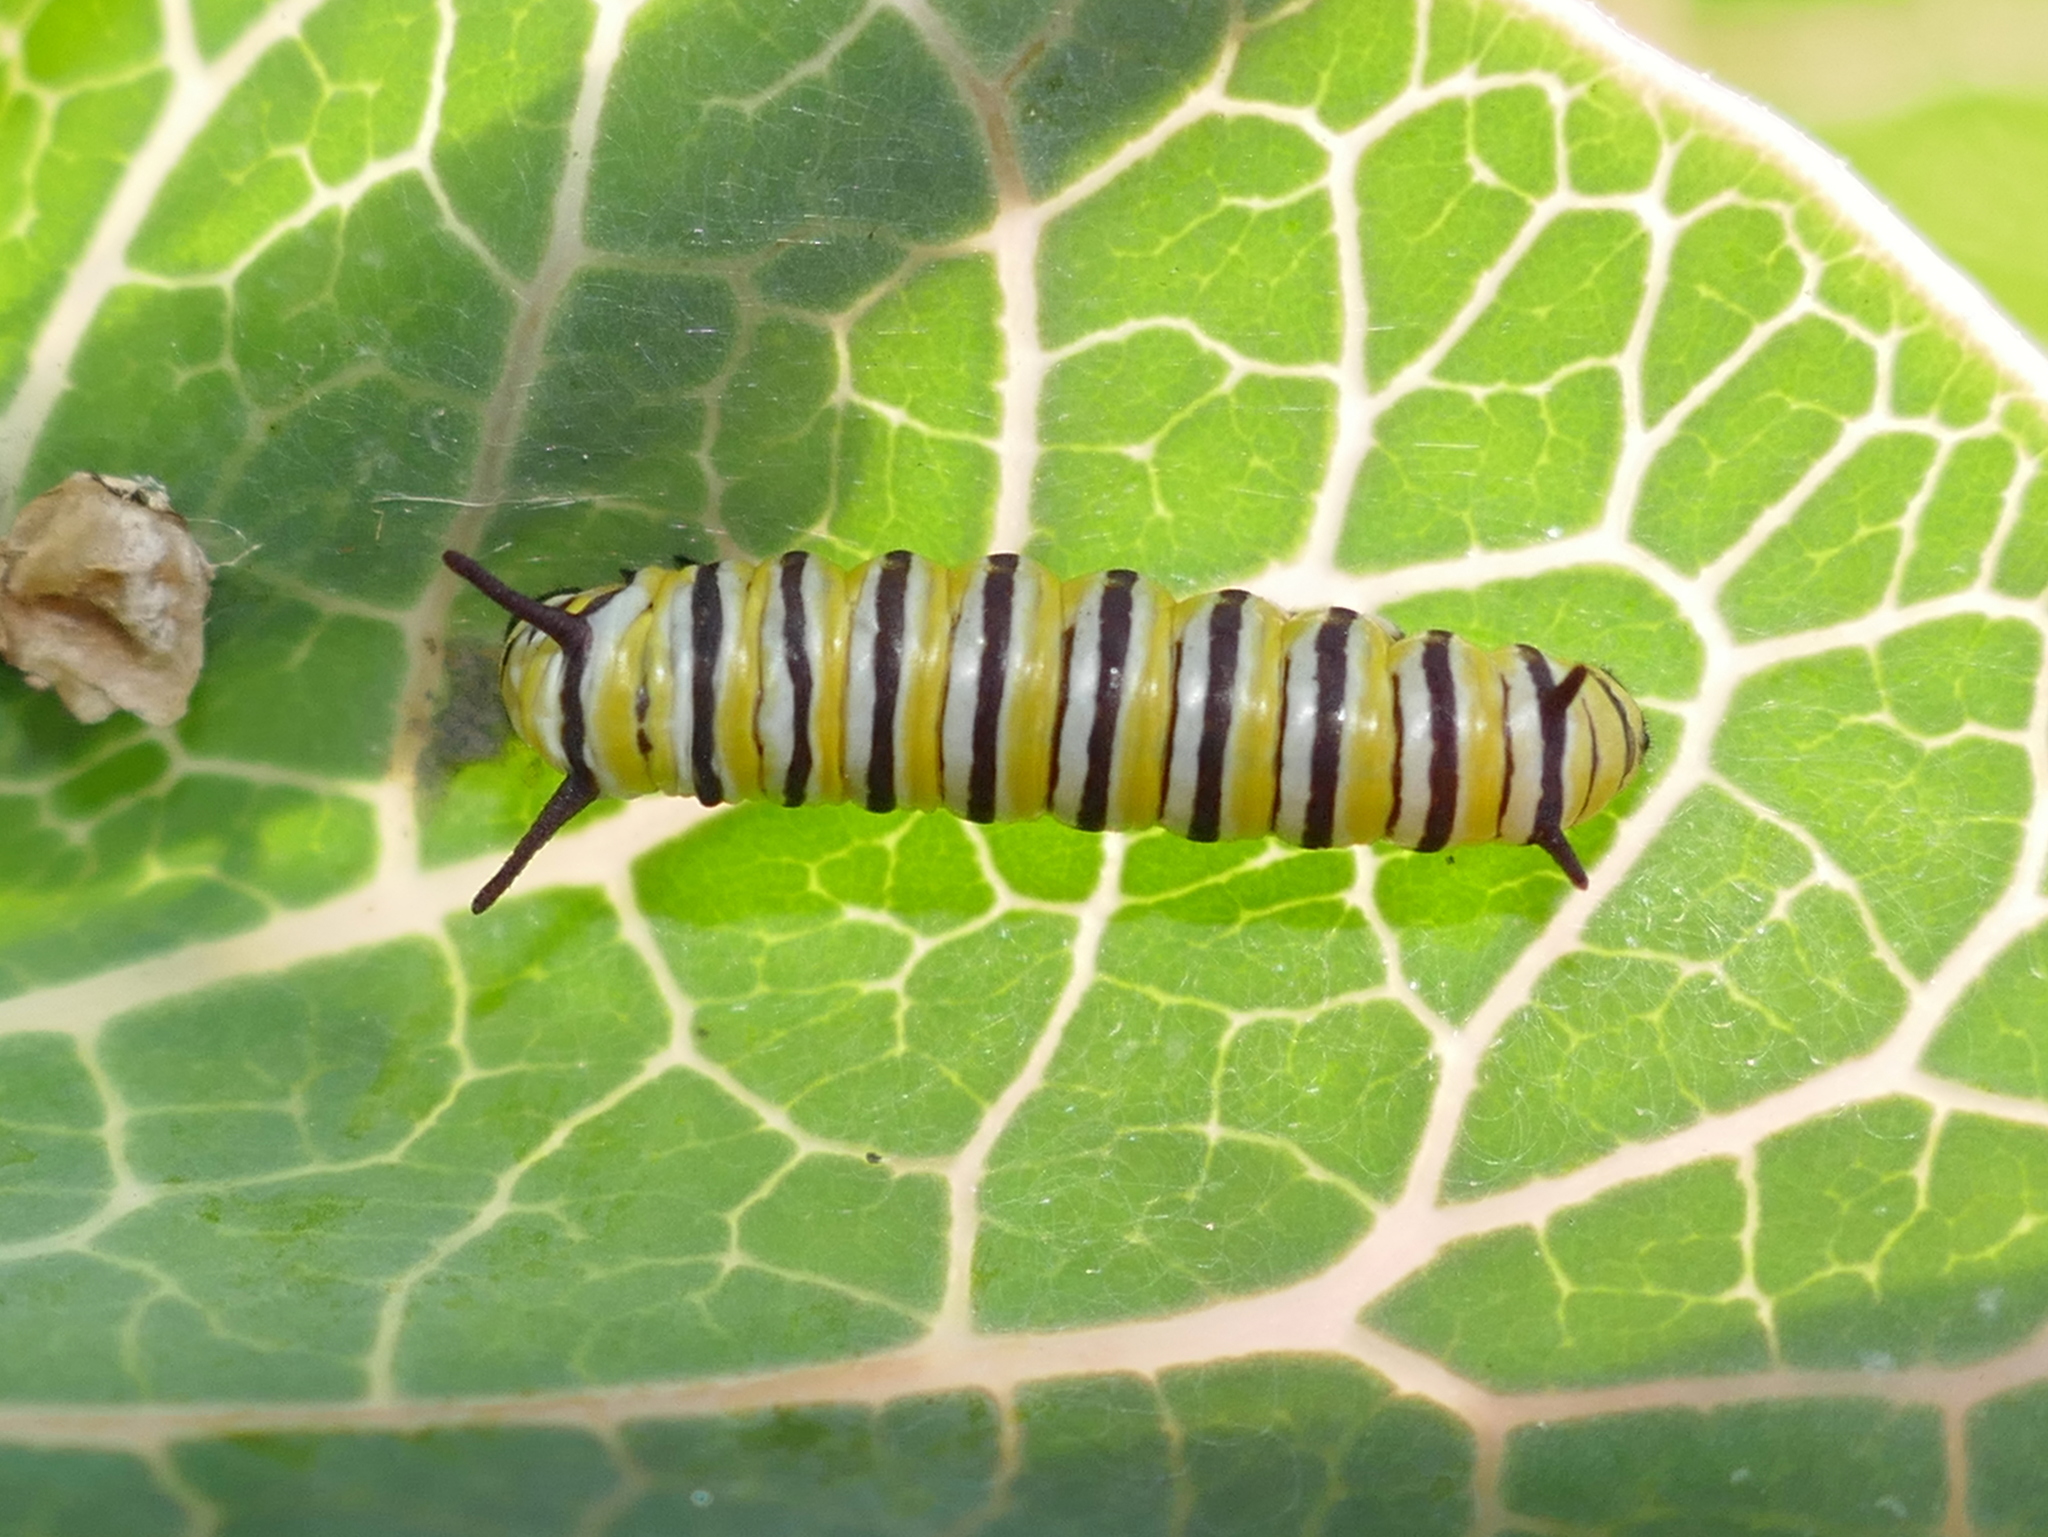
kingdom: Animalia
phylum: Arthropoda
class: Insecta
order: Lepidoptera
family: Nymphalidae
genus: Danaus
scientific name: Danaus plexippus
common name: Monarch
